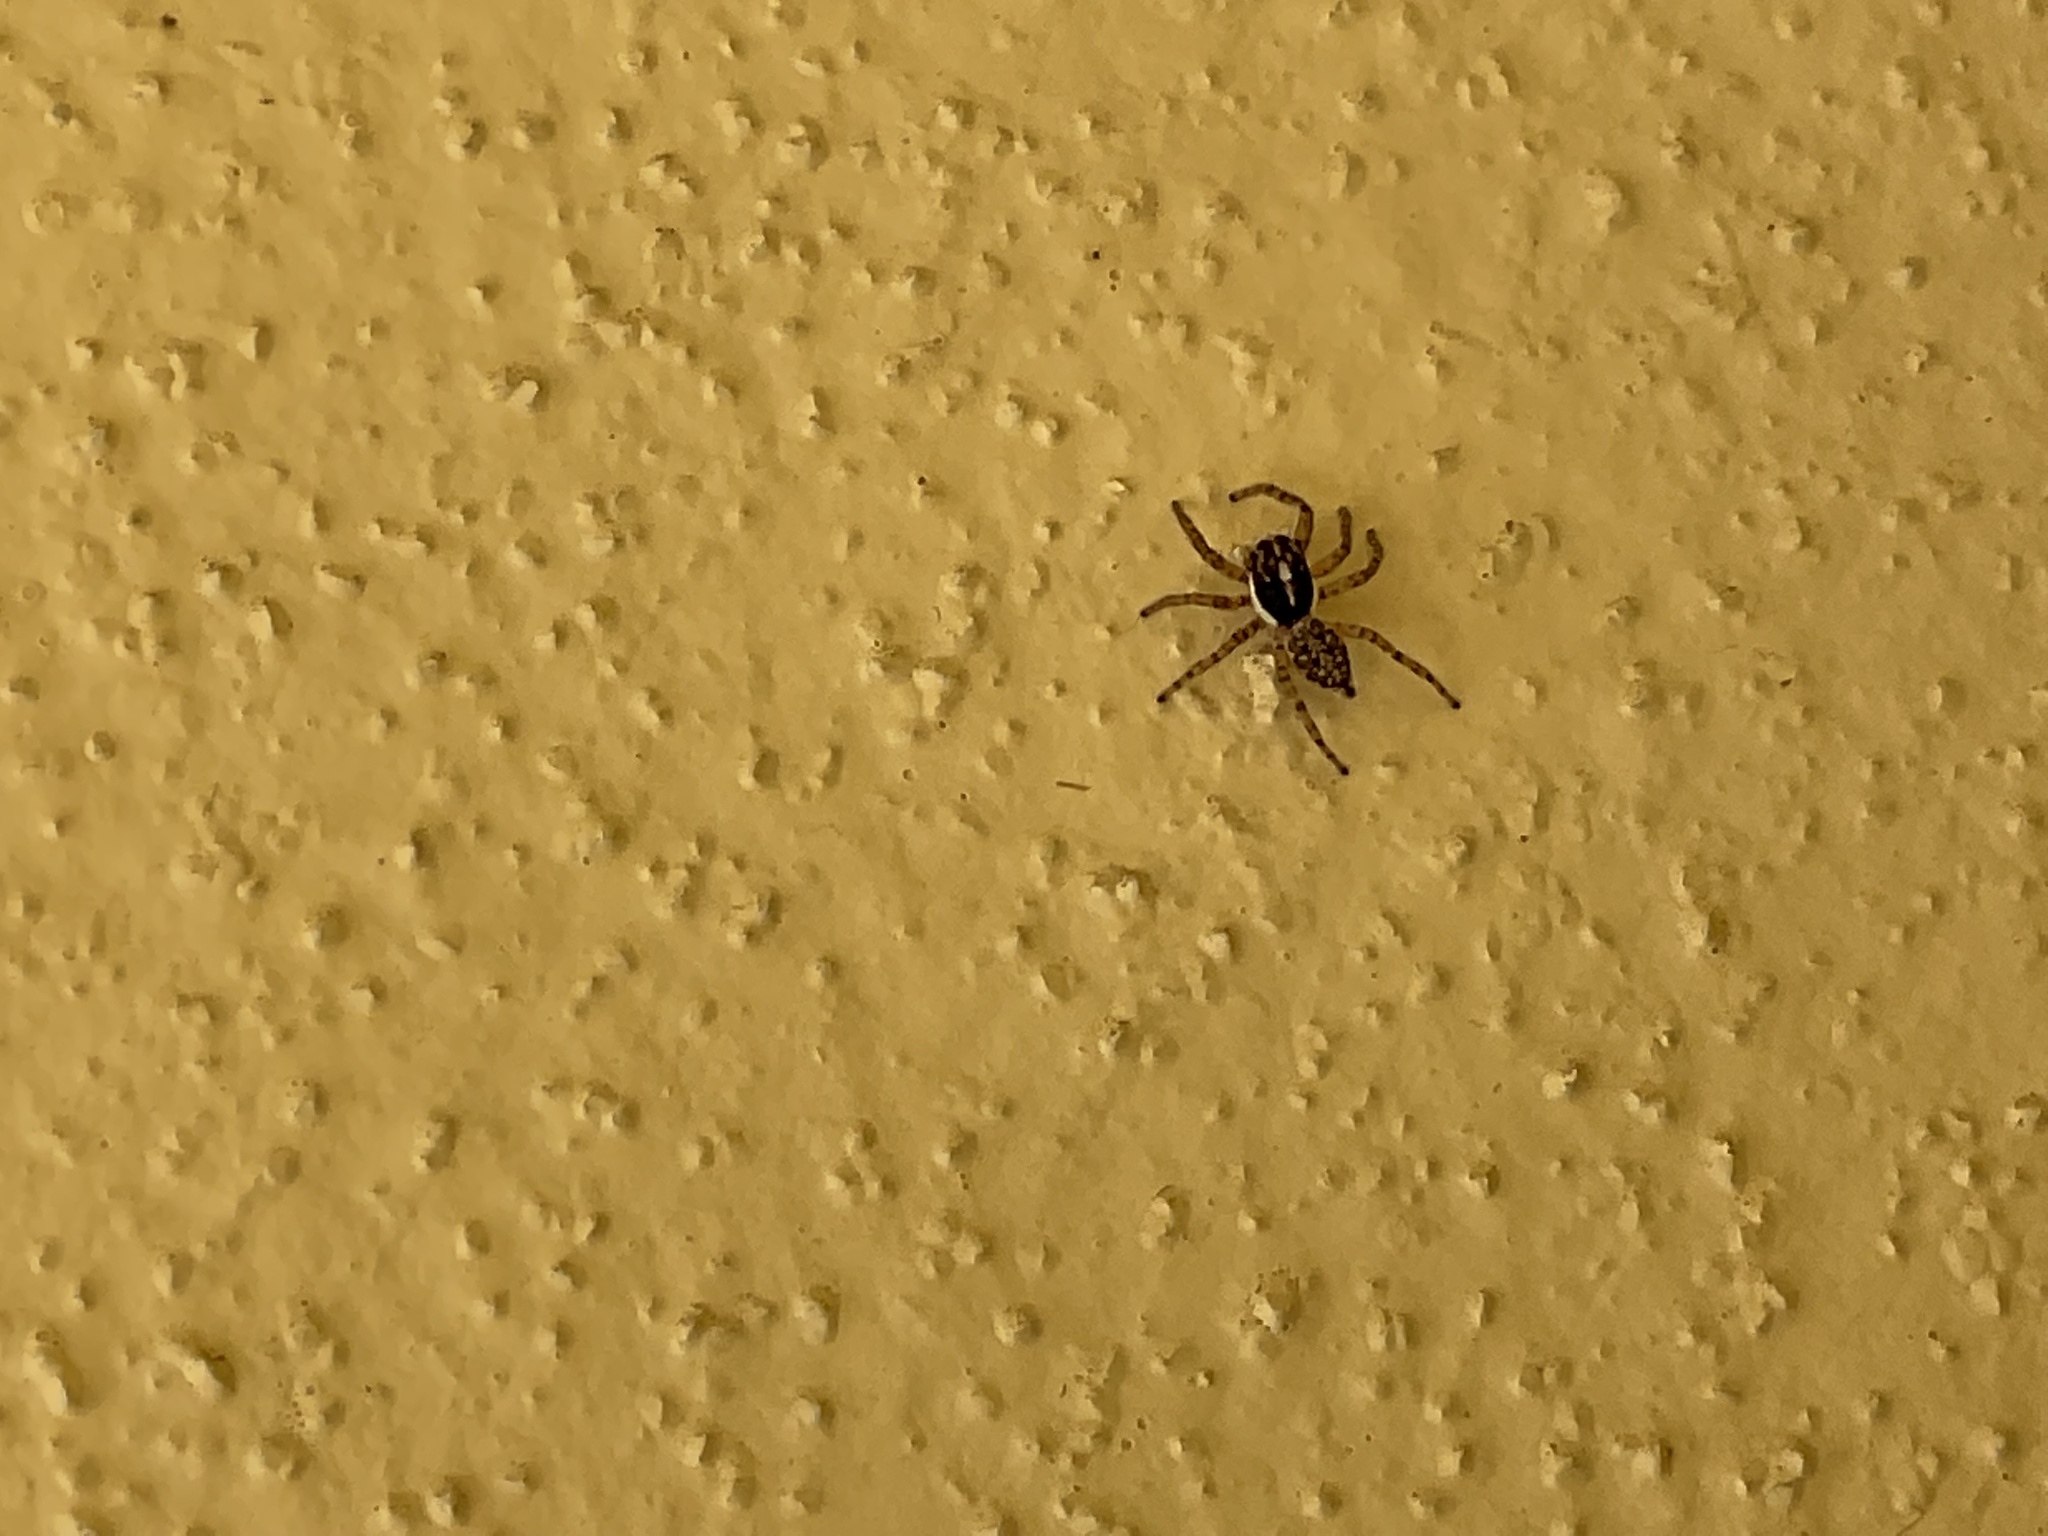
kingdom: Animalia
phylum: Arthropoda
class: Arachnida
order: Araneae
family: Salticidae
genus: Menemerus
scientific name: Menemerus semilimbatus
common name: Jumping spider
